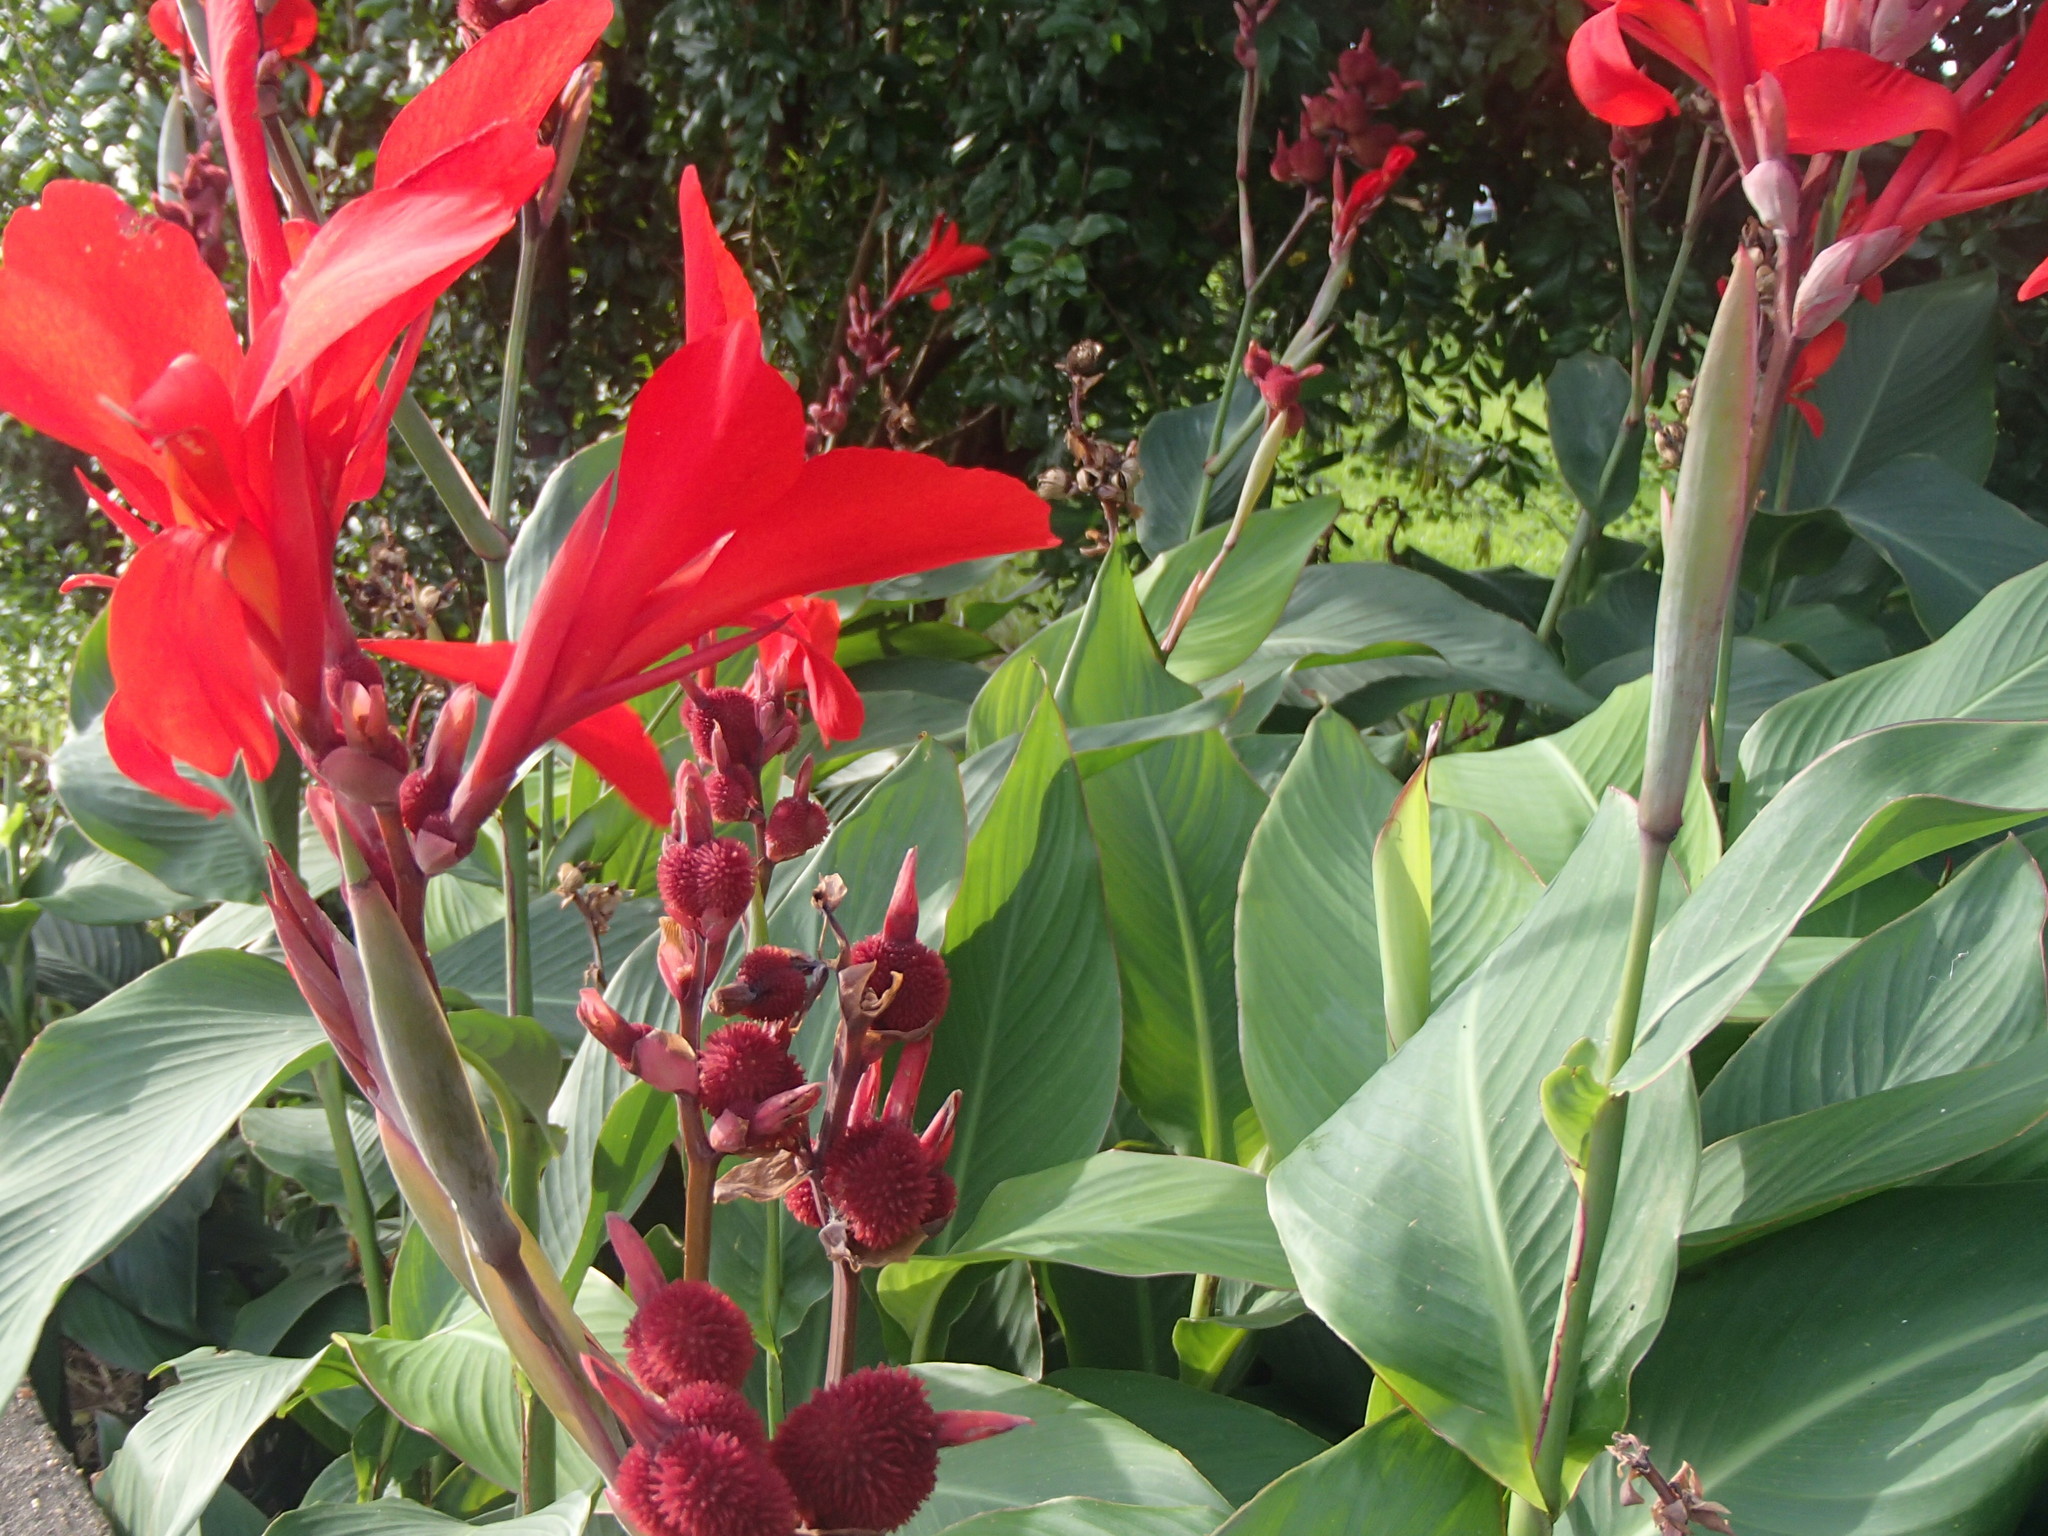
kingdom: Plantae
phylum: Tracheophyta
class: Liliopsida
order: Zingiberales
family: Cannaceae
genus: Canna
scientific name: Canna indica
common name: Indian shot
